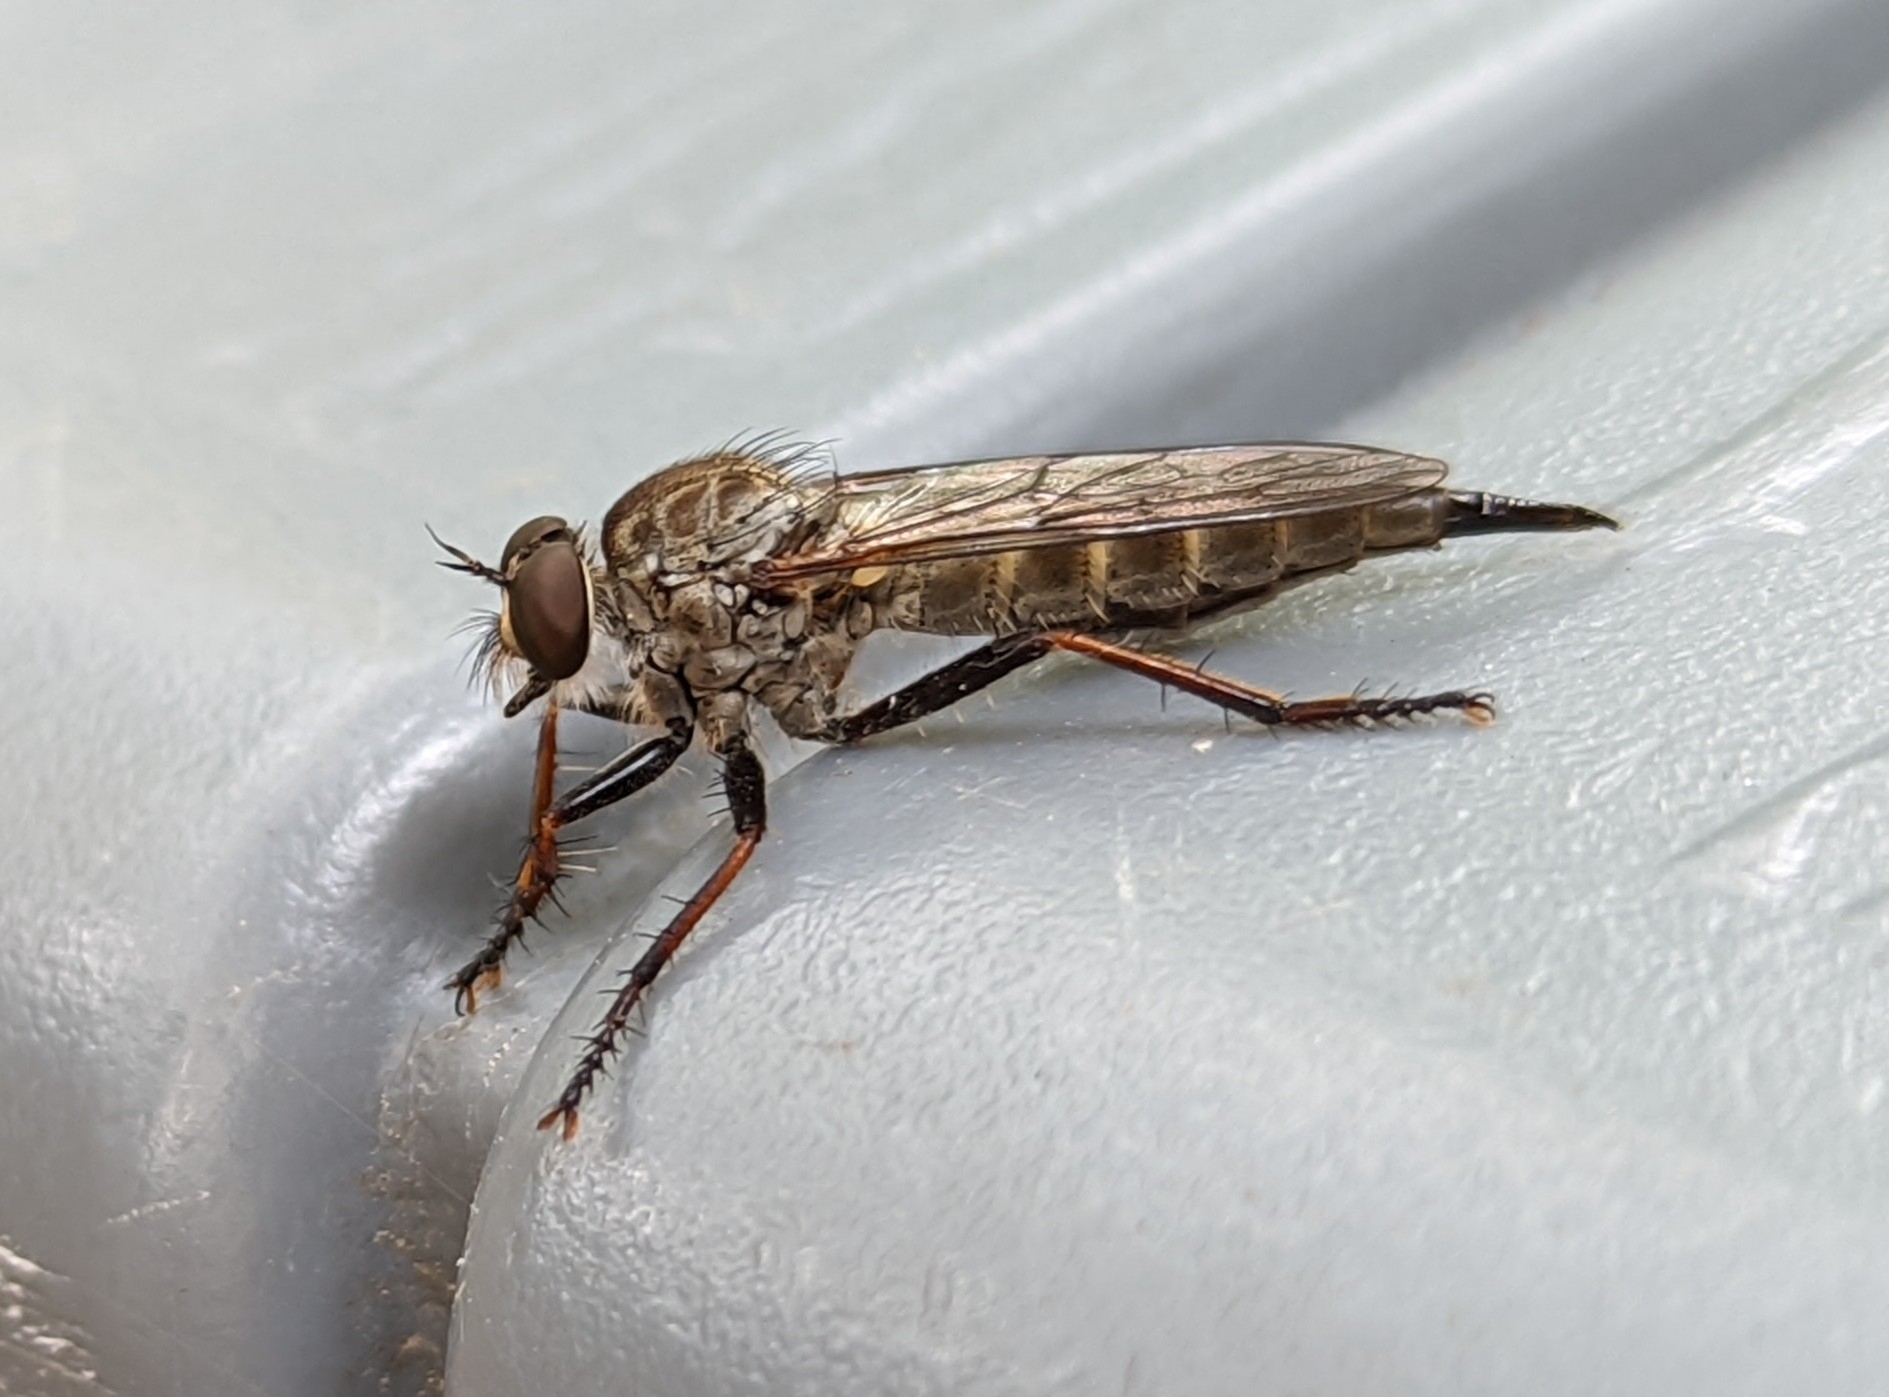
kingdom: Animalia
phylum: Arthropoda
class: Insecta
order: Diptera
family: Asilidae
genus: Neomochtherus
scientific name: Neomochtherus willistoni
